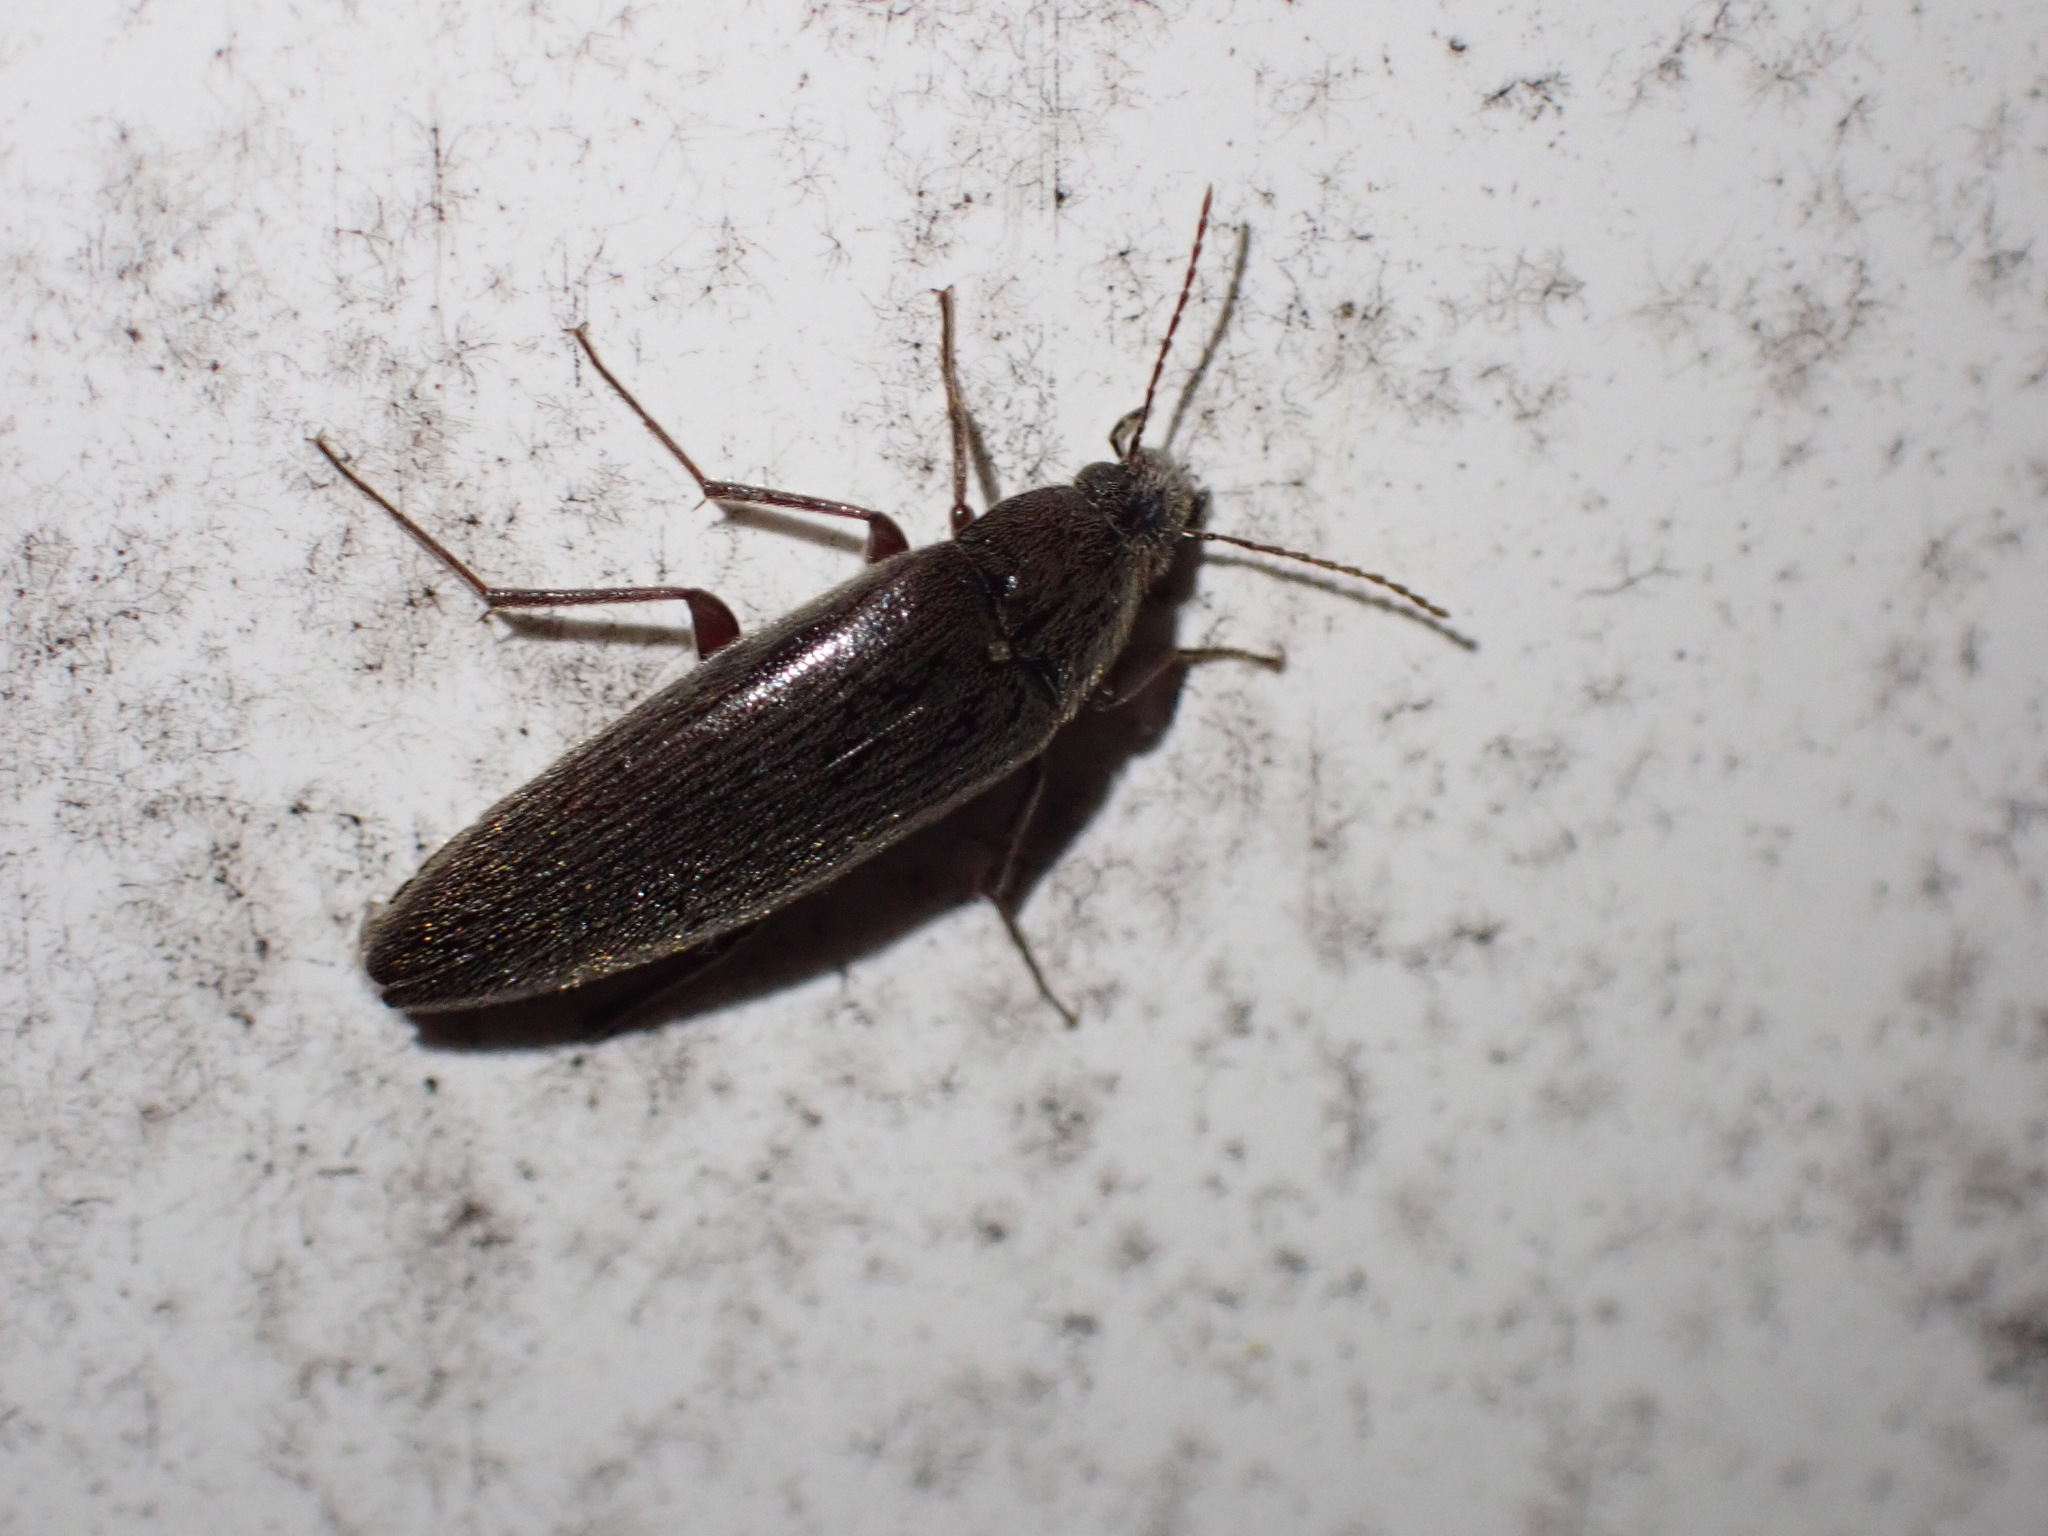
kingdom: Animalia
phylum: Arthropoda
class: Insecta
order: Coleoptera
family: Synchroidae
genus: Synchroa
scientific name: Synchroa punctata
